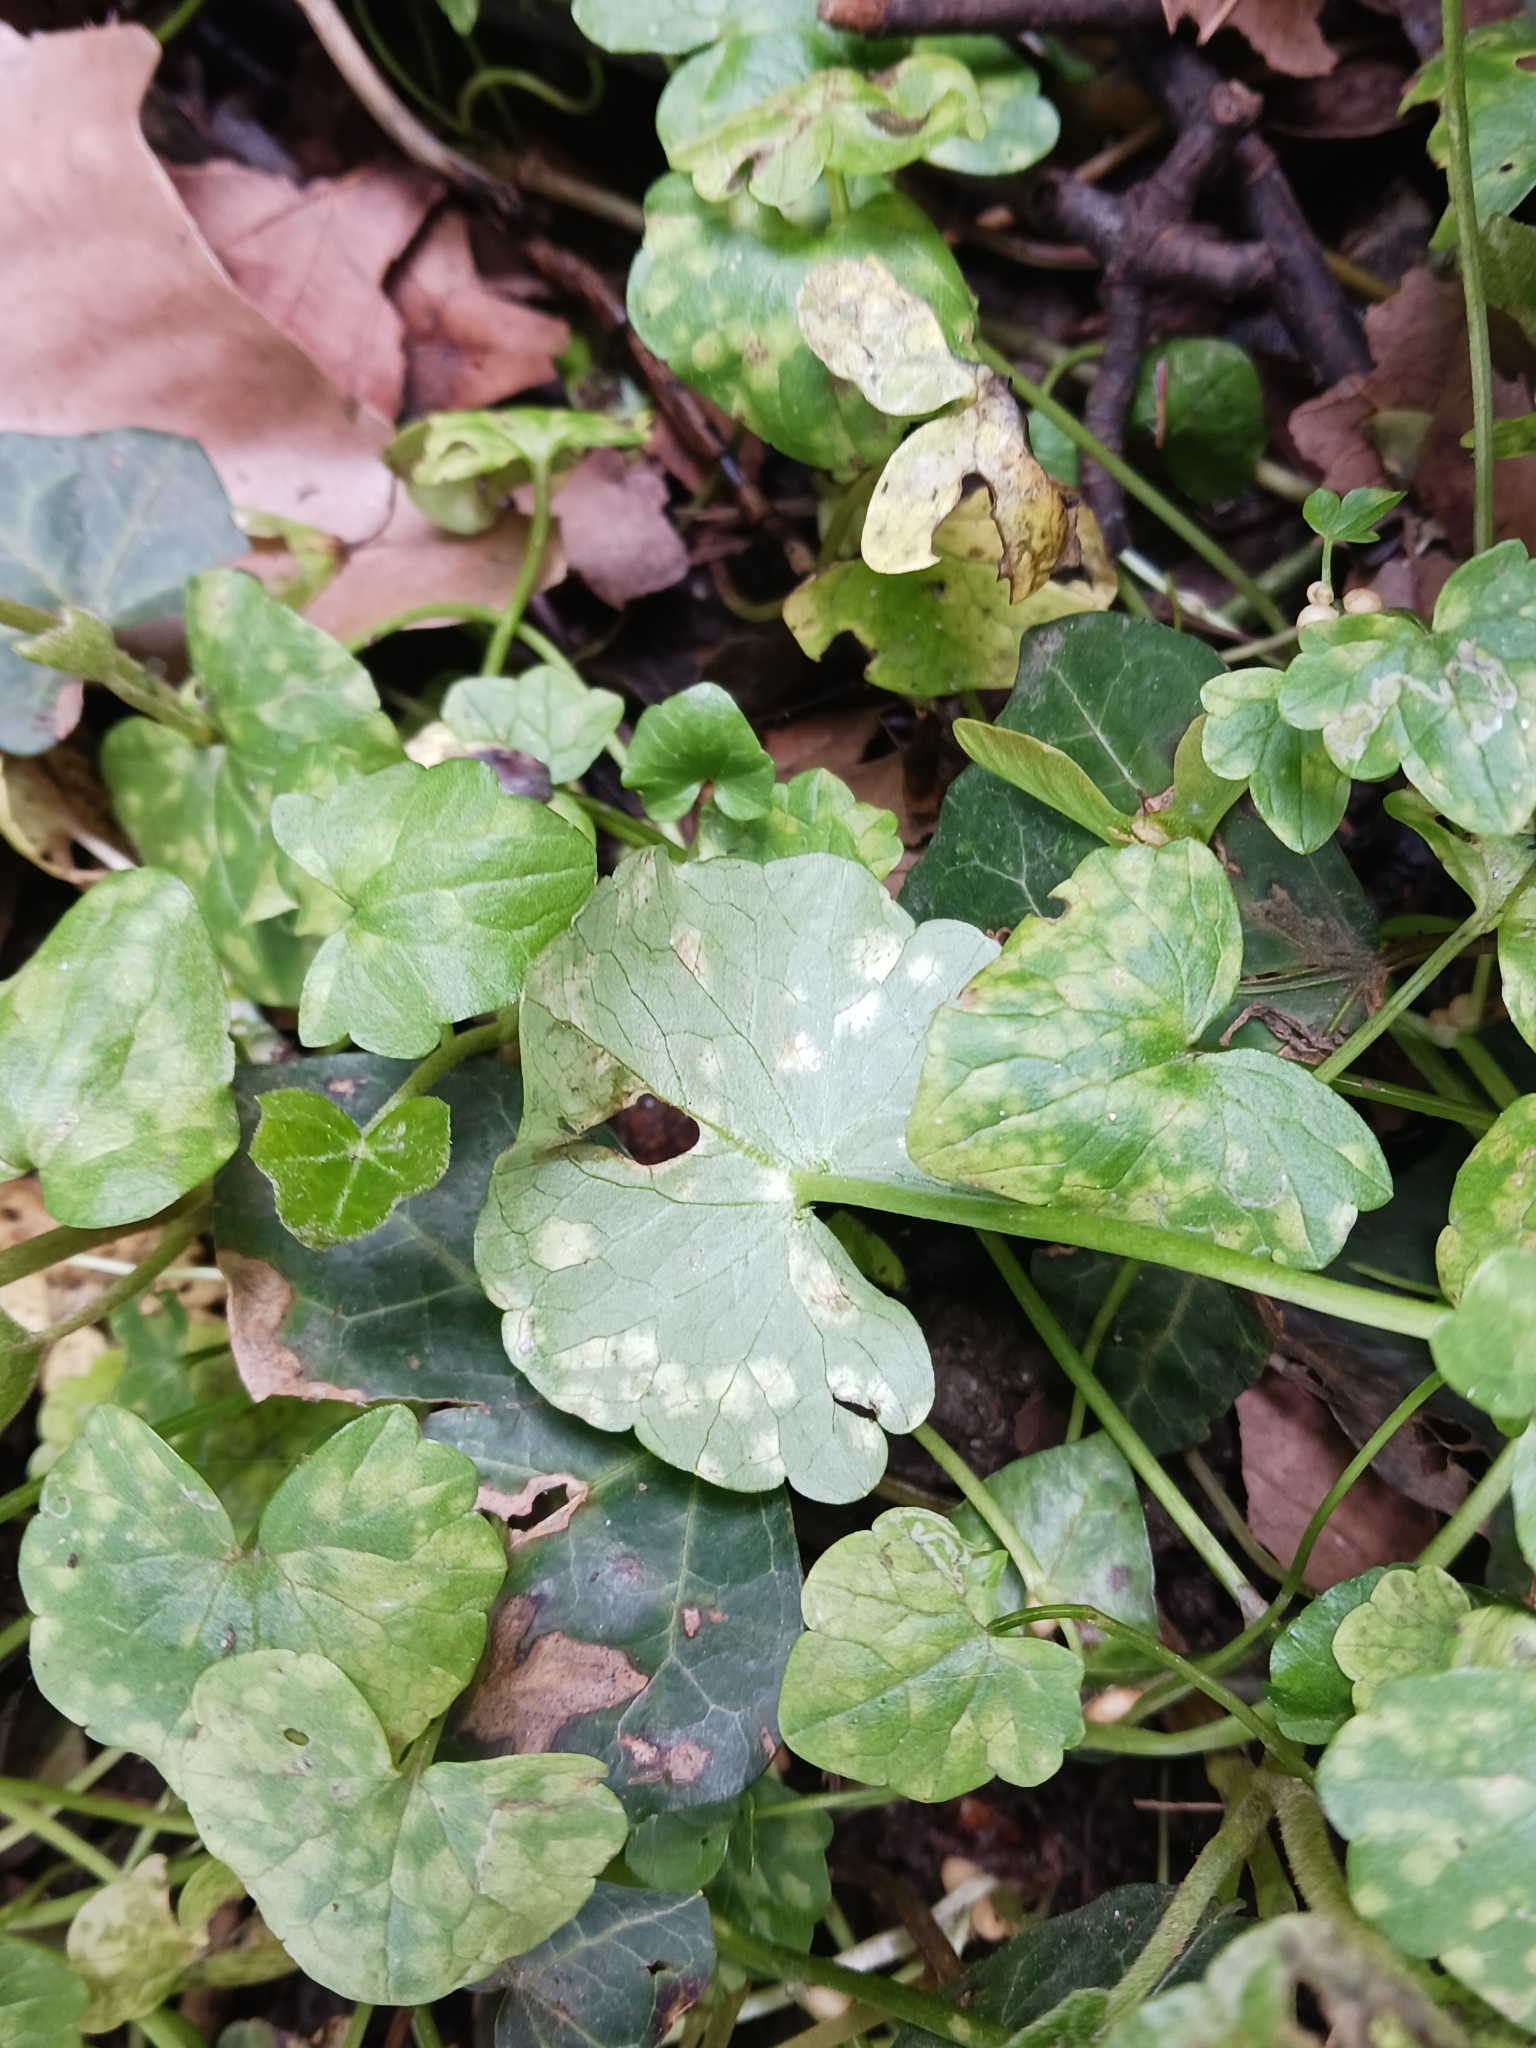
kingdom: Fungi
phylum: Basidiomycota
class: Exobasidiomycetes
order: Entylomatales
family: Entylomataceae
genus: Entyloma
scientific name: Entyloma ficariae
